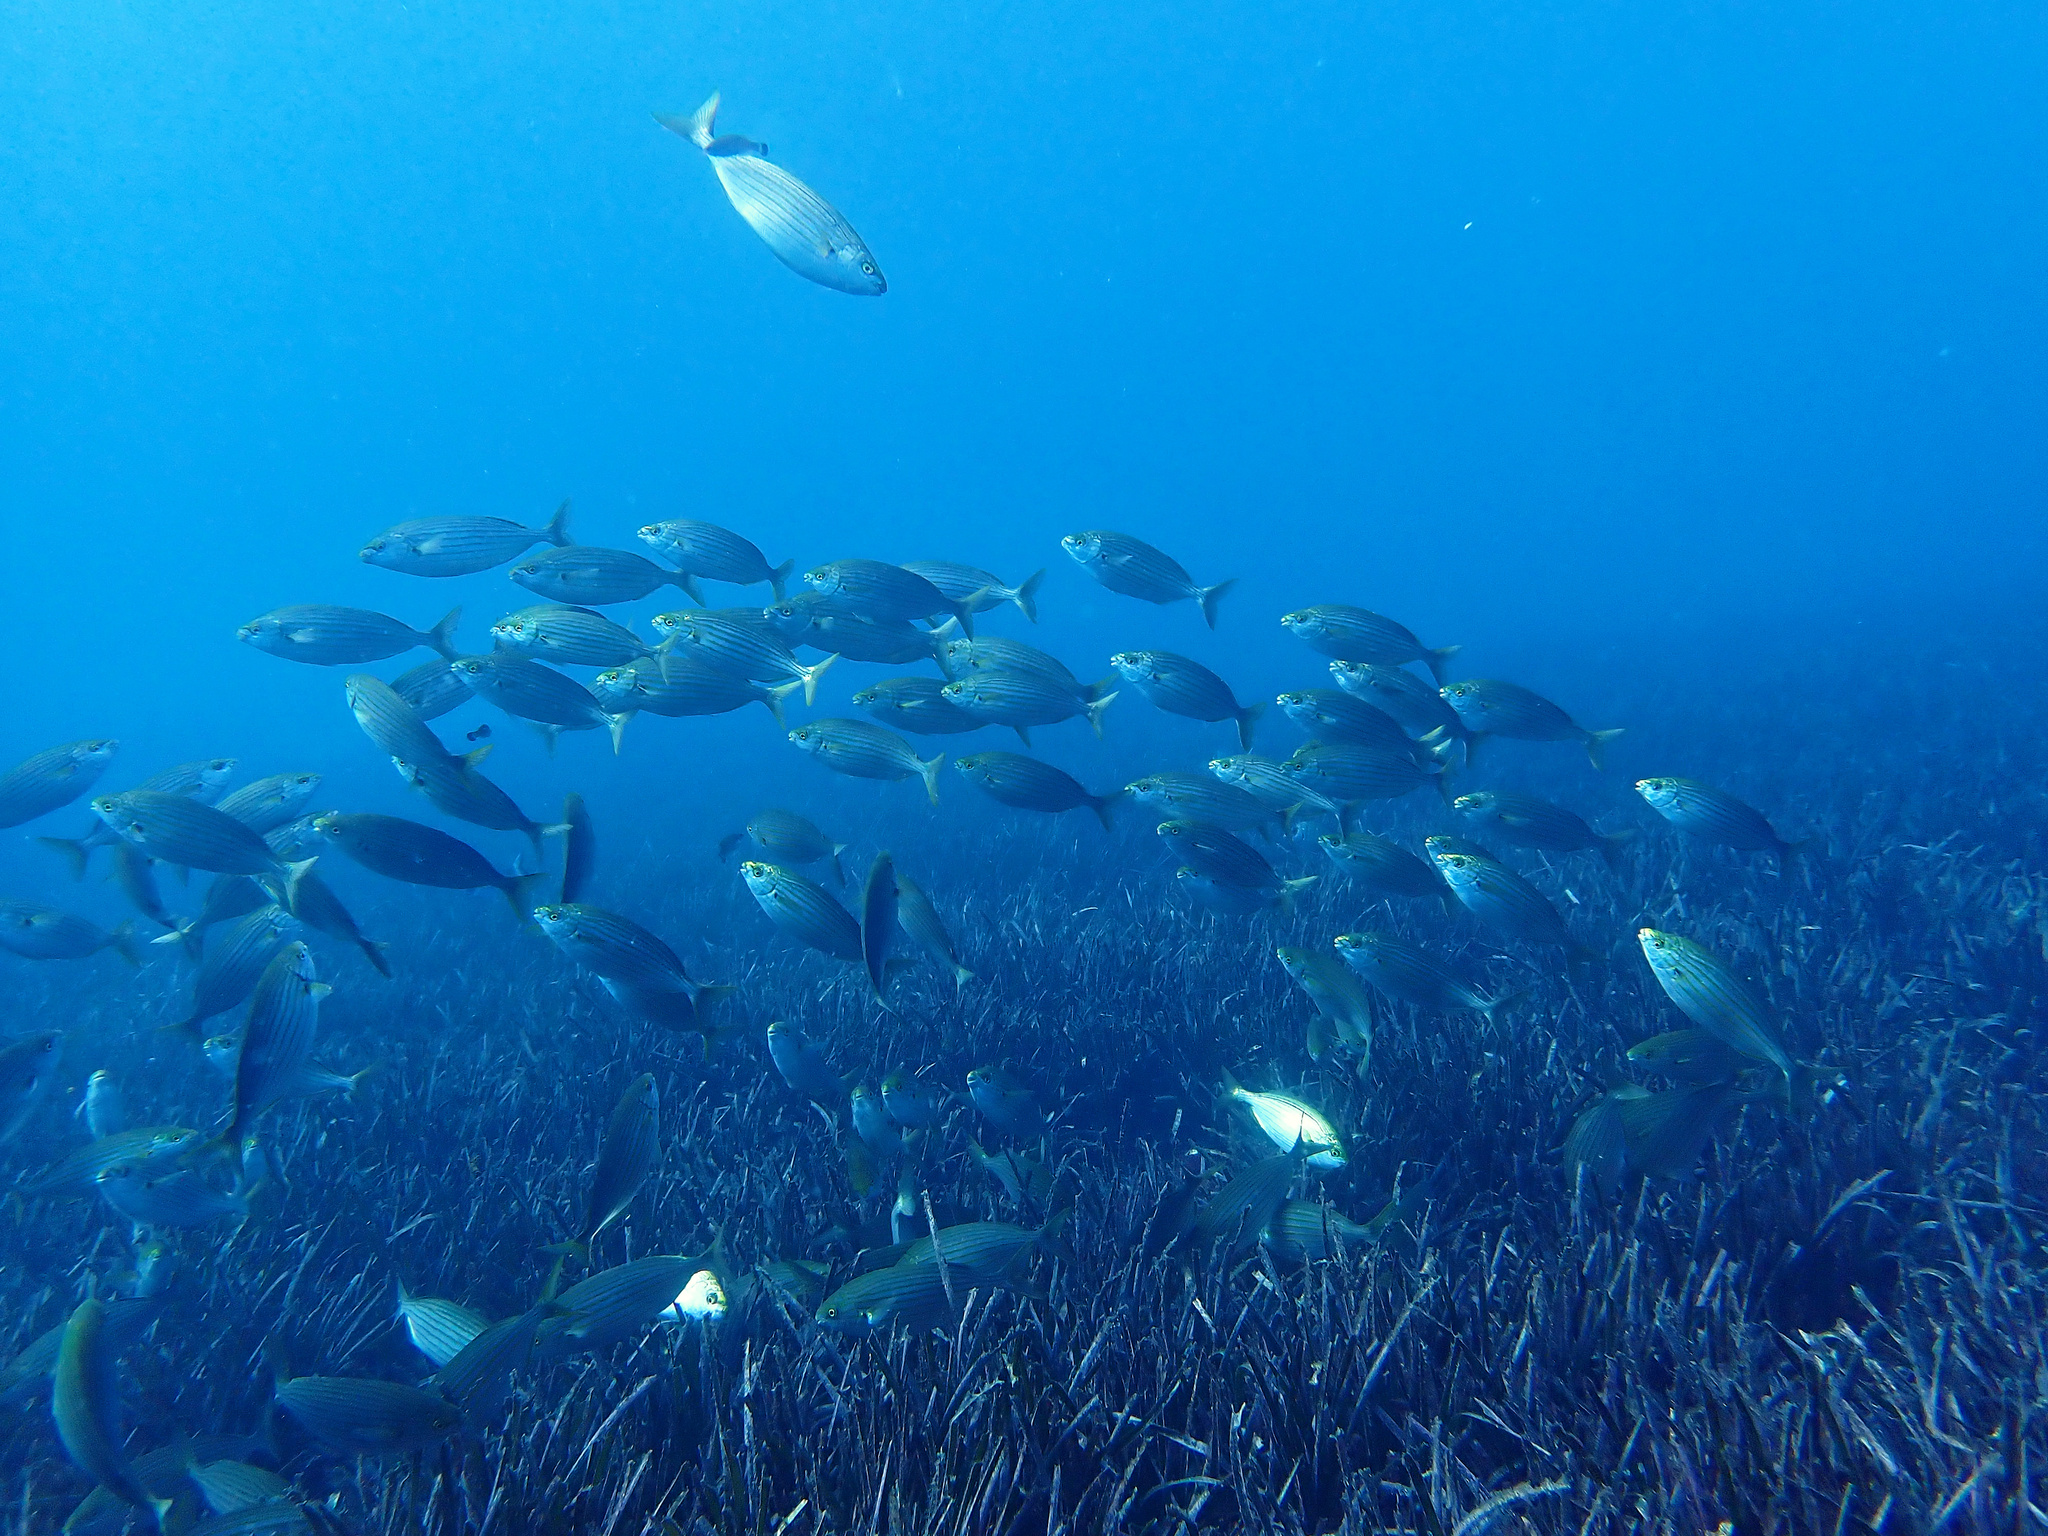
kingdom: Animalia
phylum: Chordata
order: Perciformes
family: Sparidae
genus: Sarpa
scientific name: Sarpa salpa
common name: Salema
